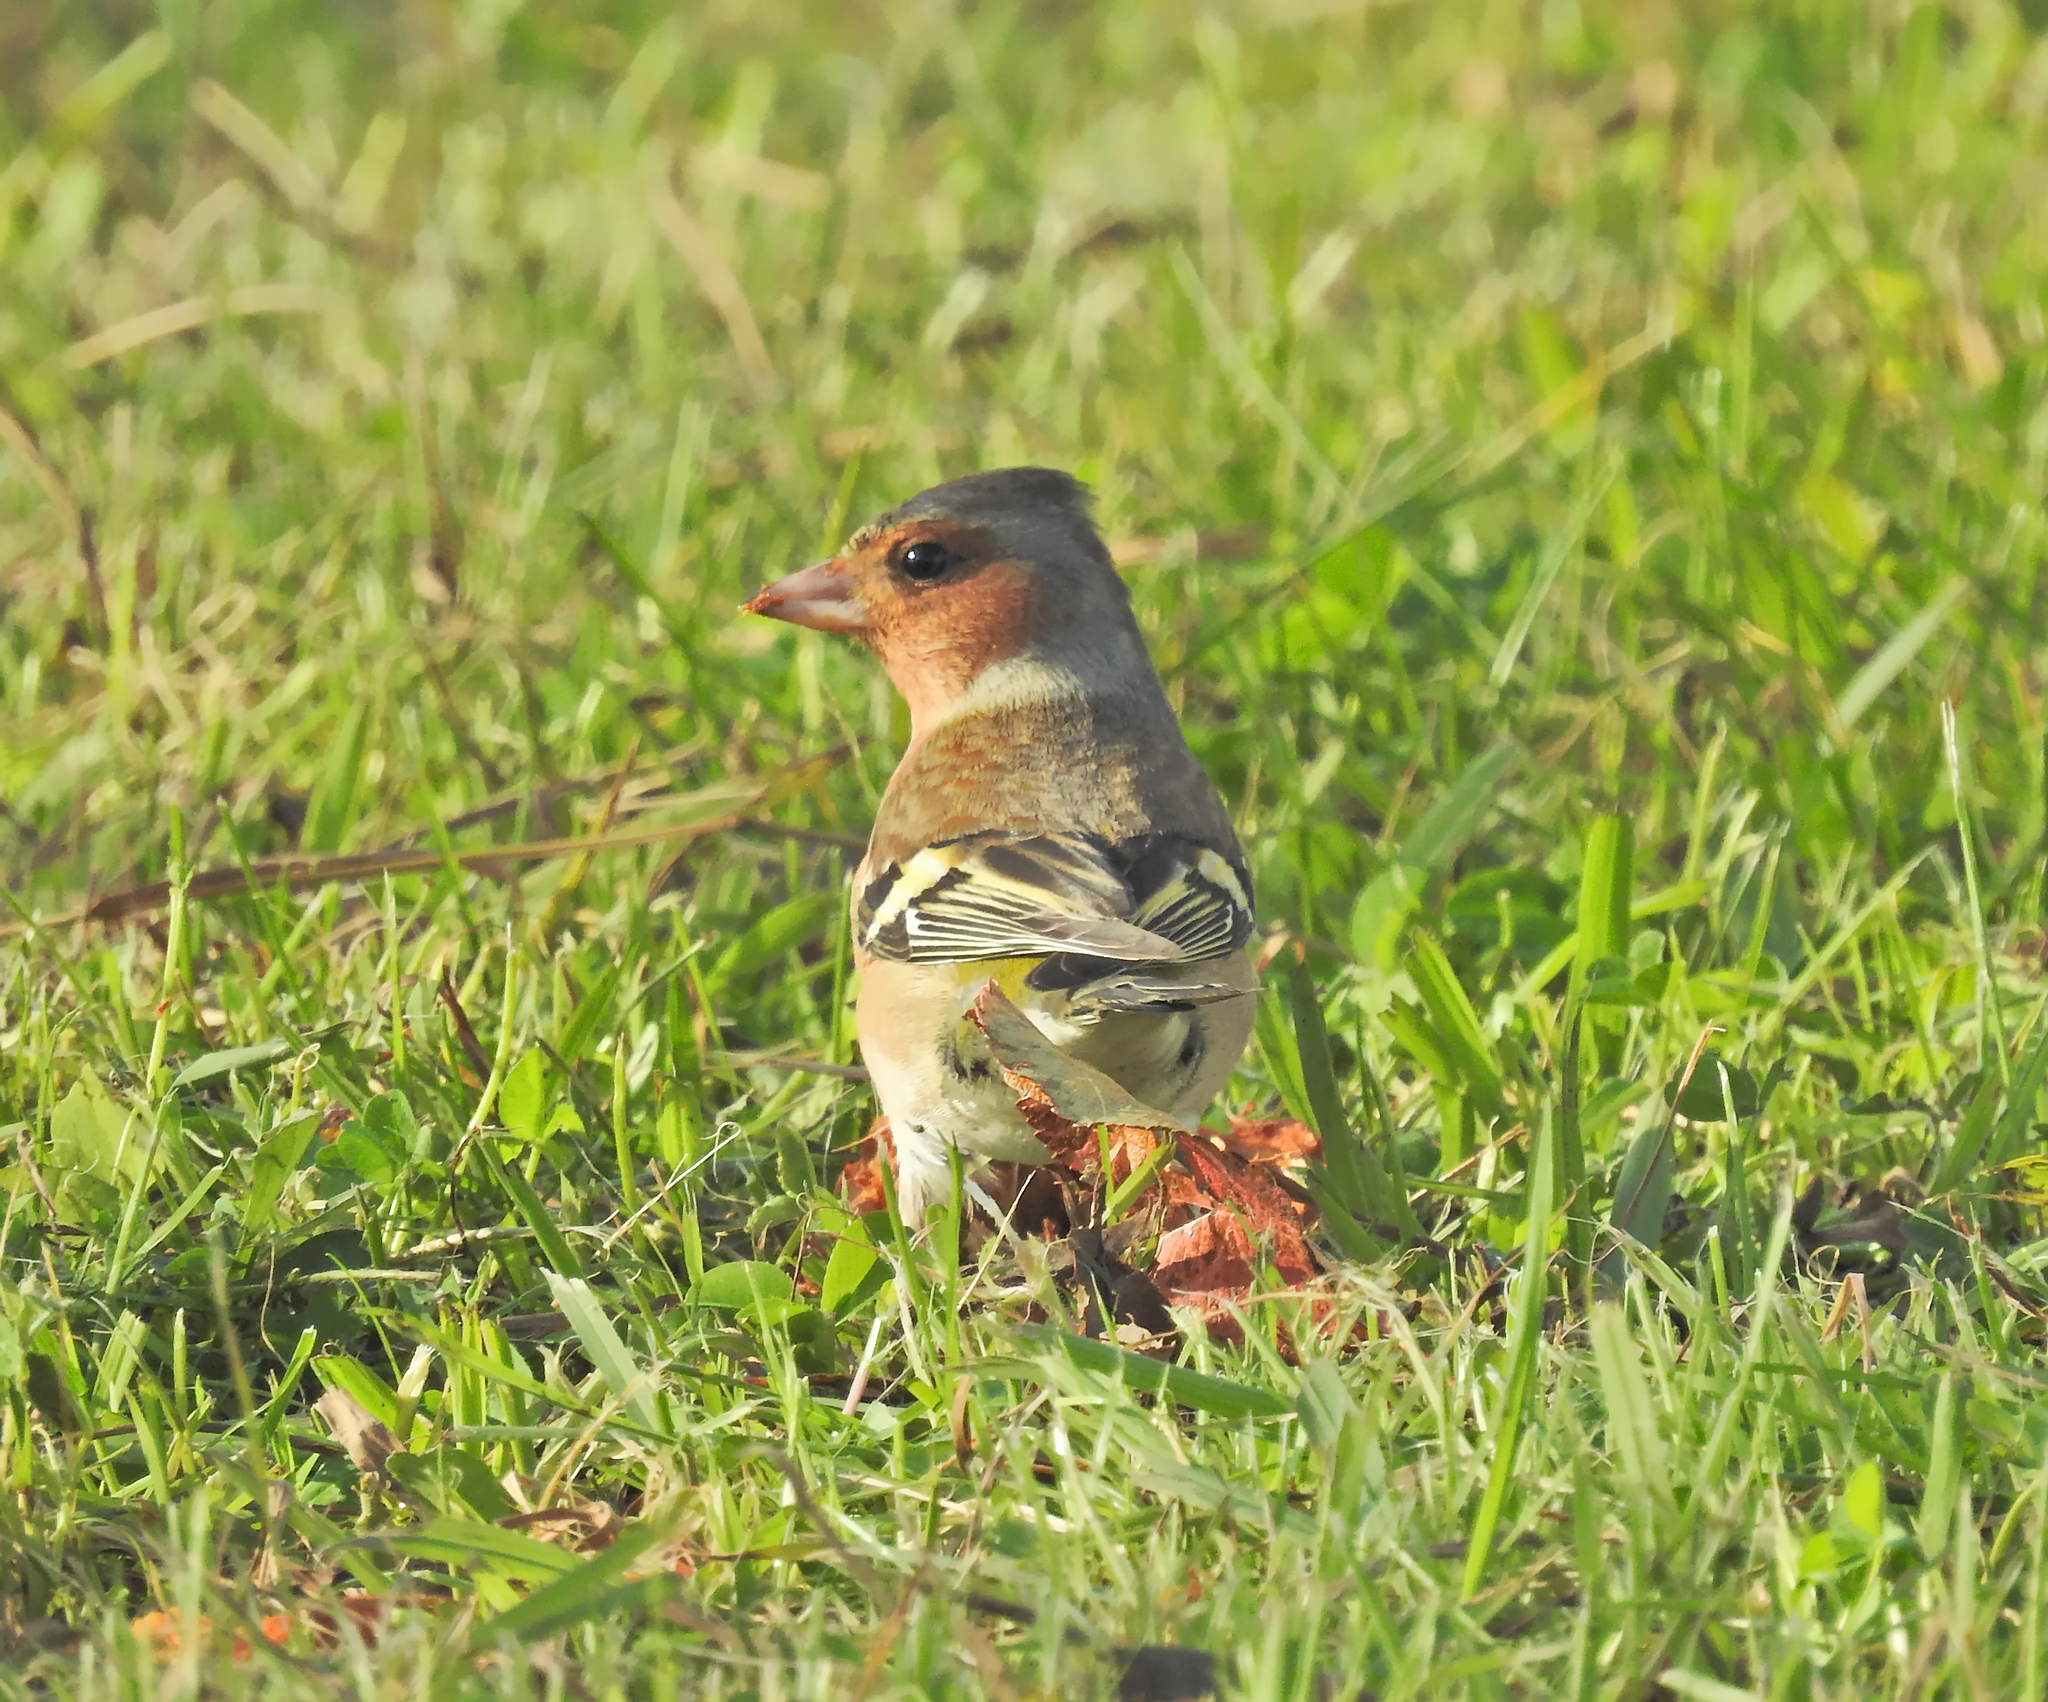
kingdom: Animalia
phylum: Chordata
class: Aves
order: Passeriformes
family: Fringillidae
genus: Fringilla
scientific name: Fringilla coelebs
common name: Common chaffinch
